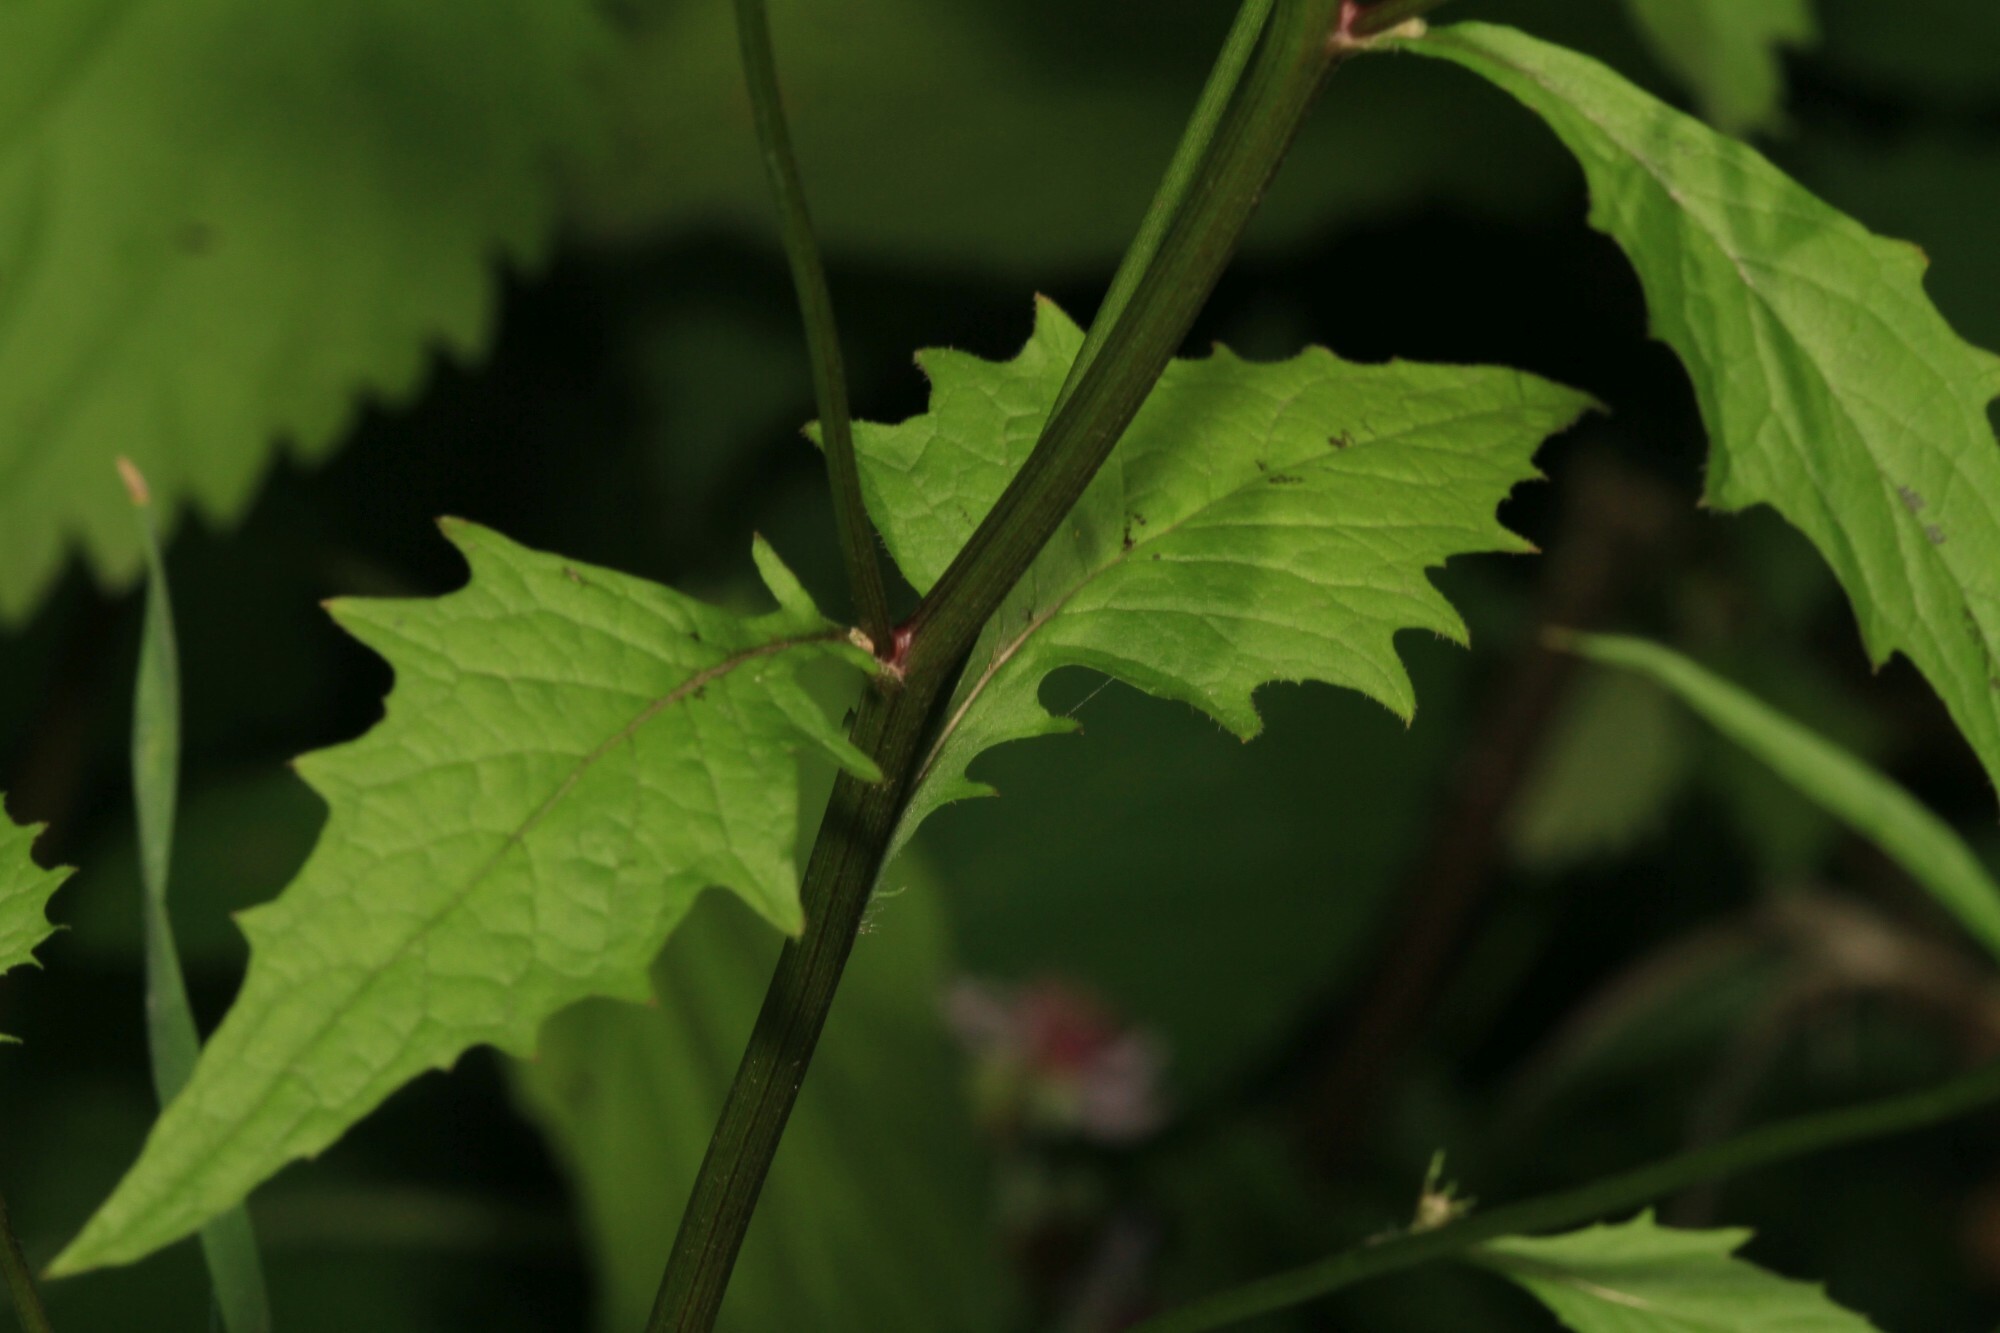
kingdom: Plantae
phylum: Tracheophyta
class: Magnoliopsida
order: Asterales
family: Asteraceae
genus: Lapsana
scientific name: Lapsana communis
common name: Nipplewort
